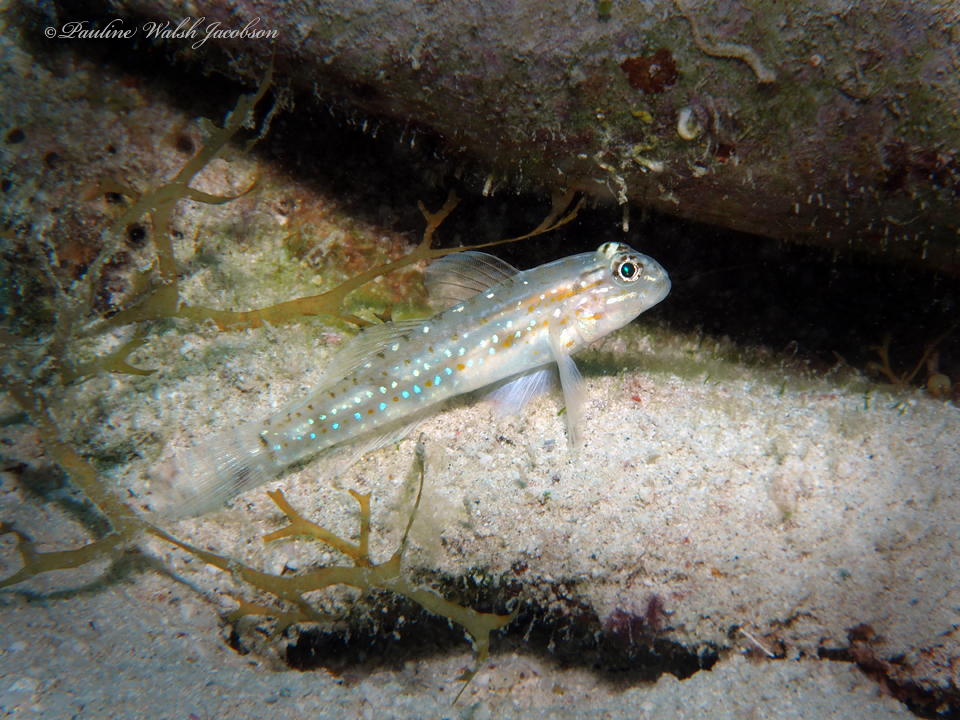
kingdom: Animalia
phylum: Chordata
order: Perciformes
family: Gobiidae
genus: Coryphopterus
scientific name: Coryphopterus venezuelae
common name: Sand-canyon goby
